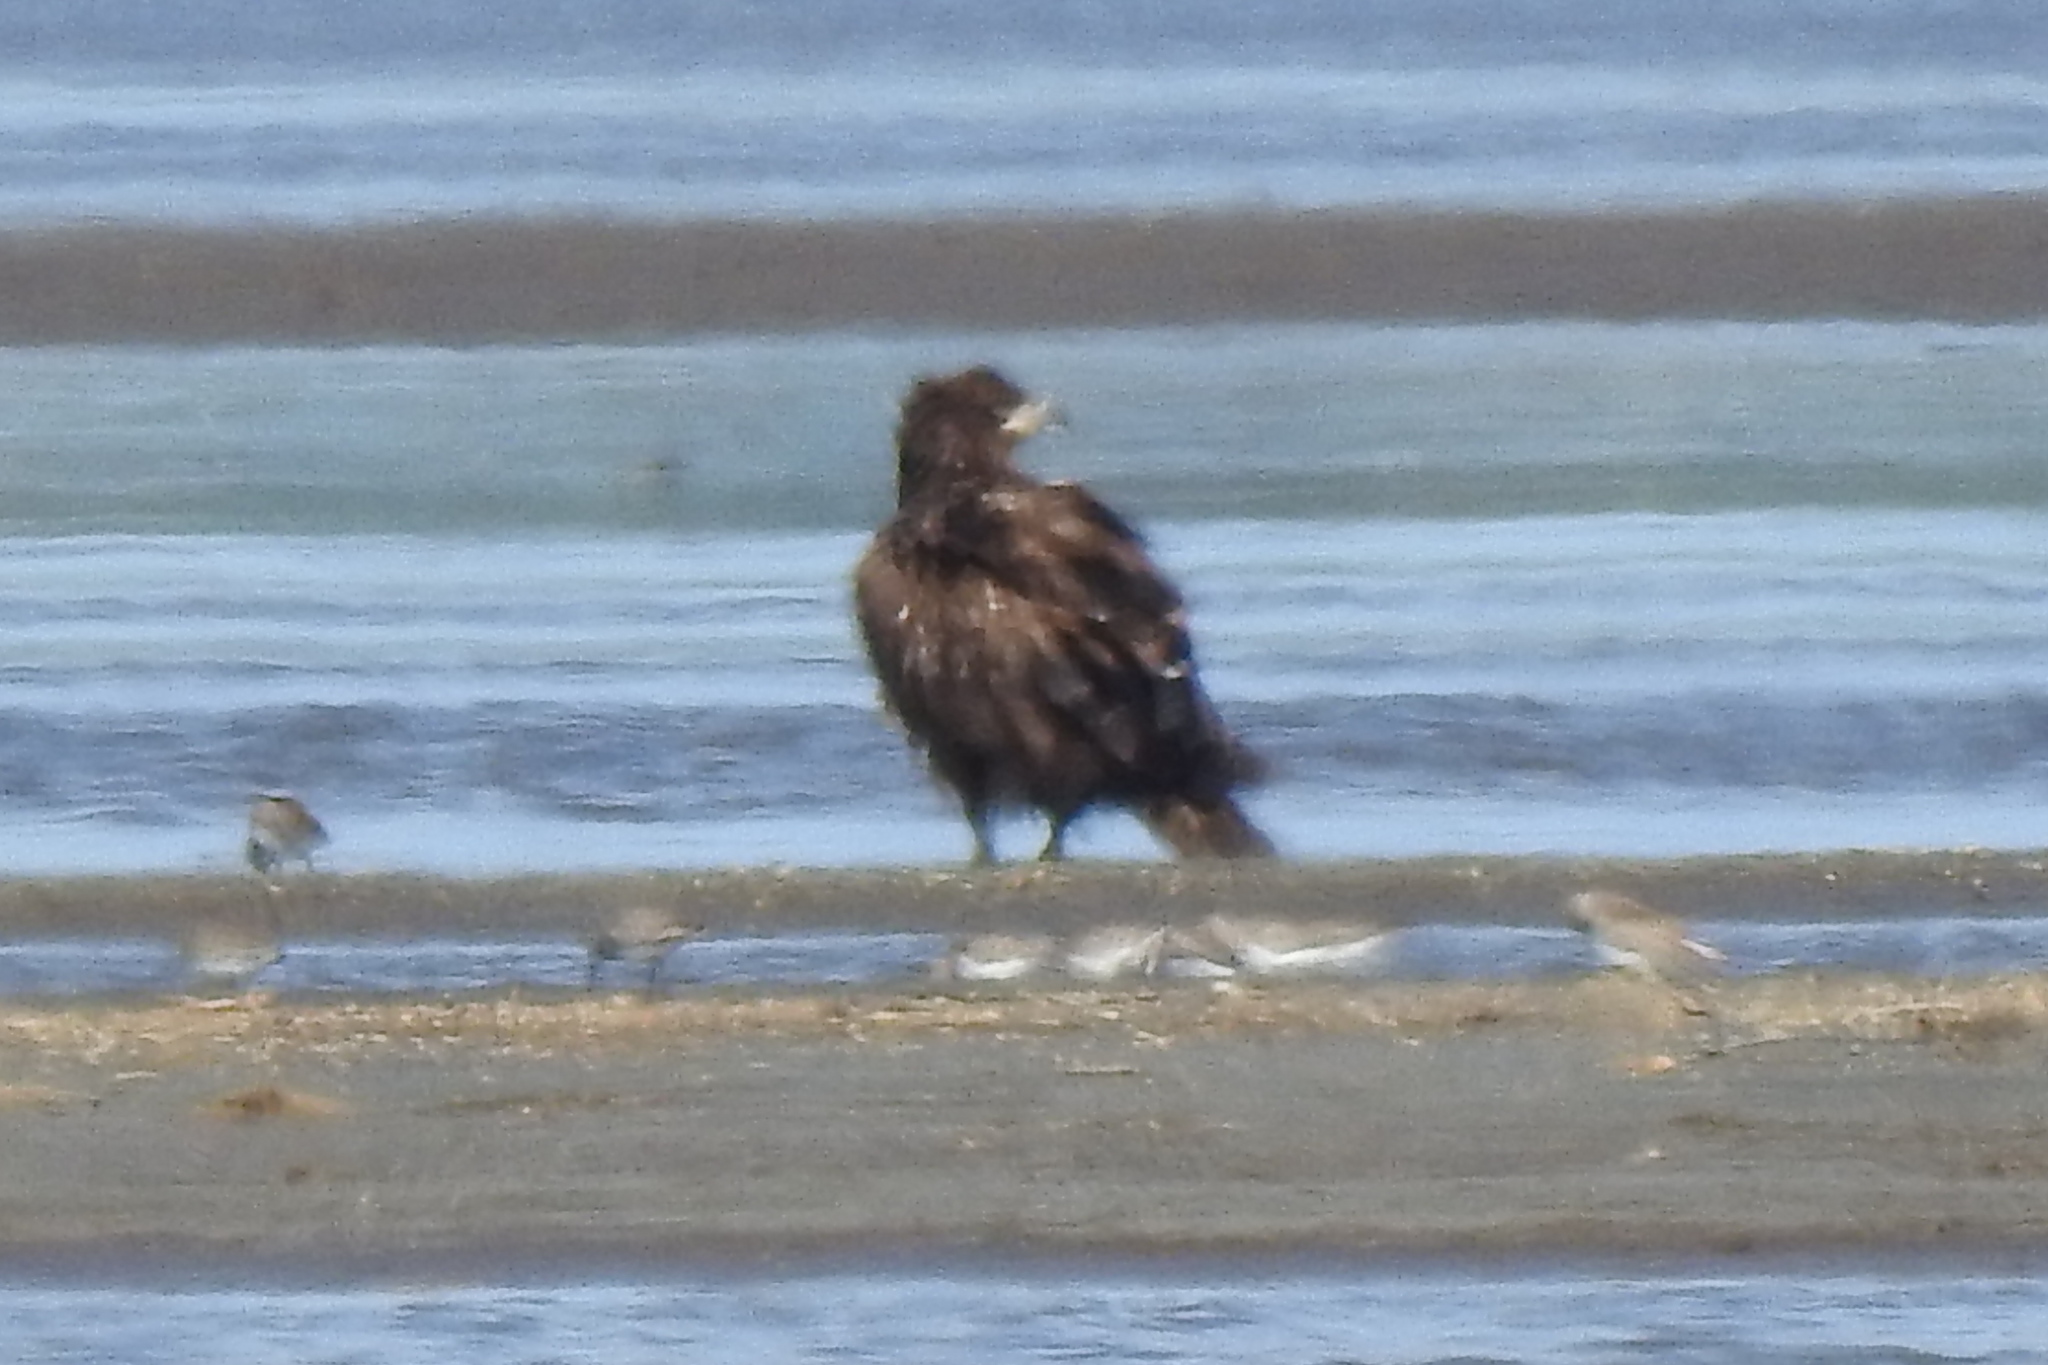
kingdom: Animalia
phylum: Chordata
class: Aves
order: Accipitriformes
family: Accipitridae
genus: Haliaeetus
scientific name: Haliaeetus leucocephalus
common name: Bald eagle
